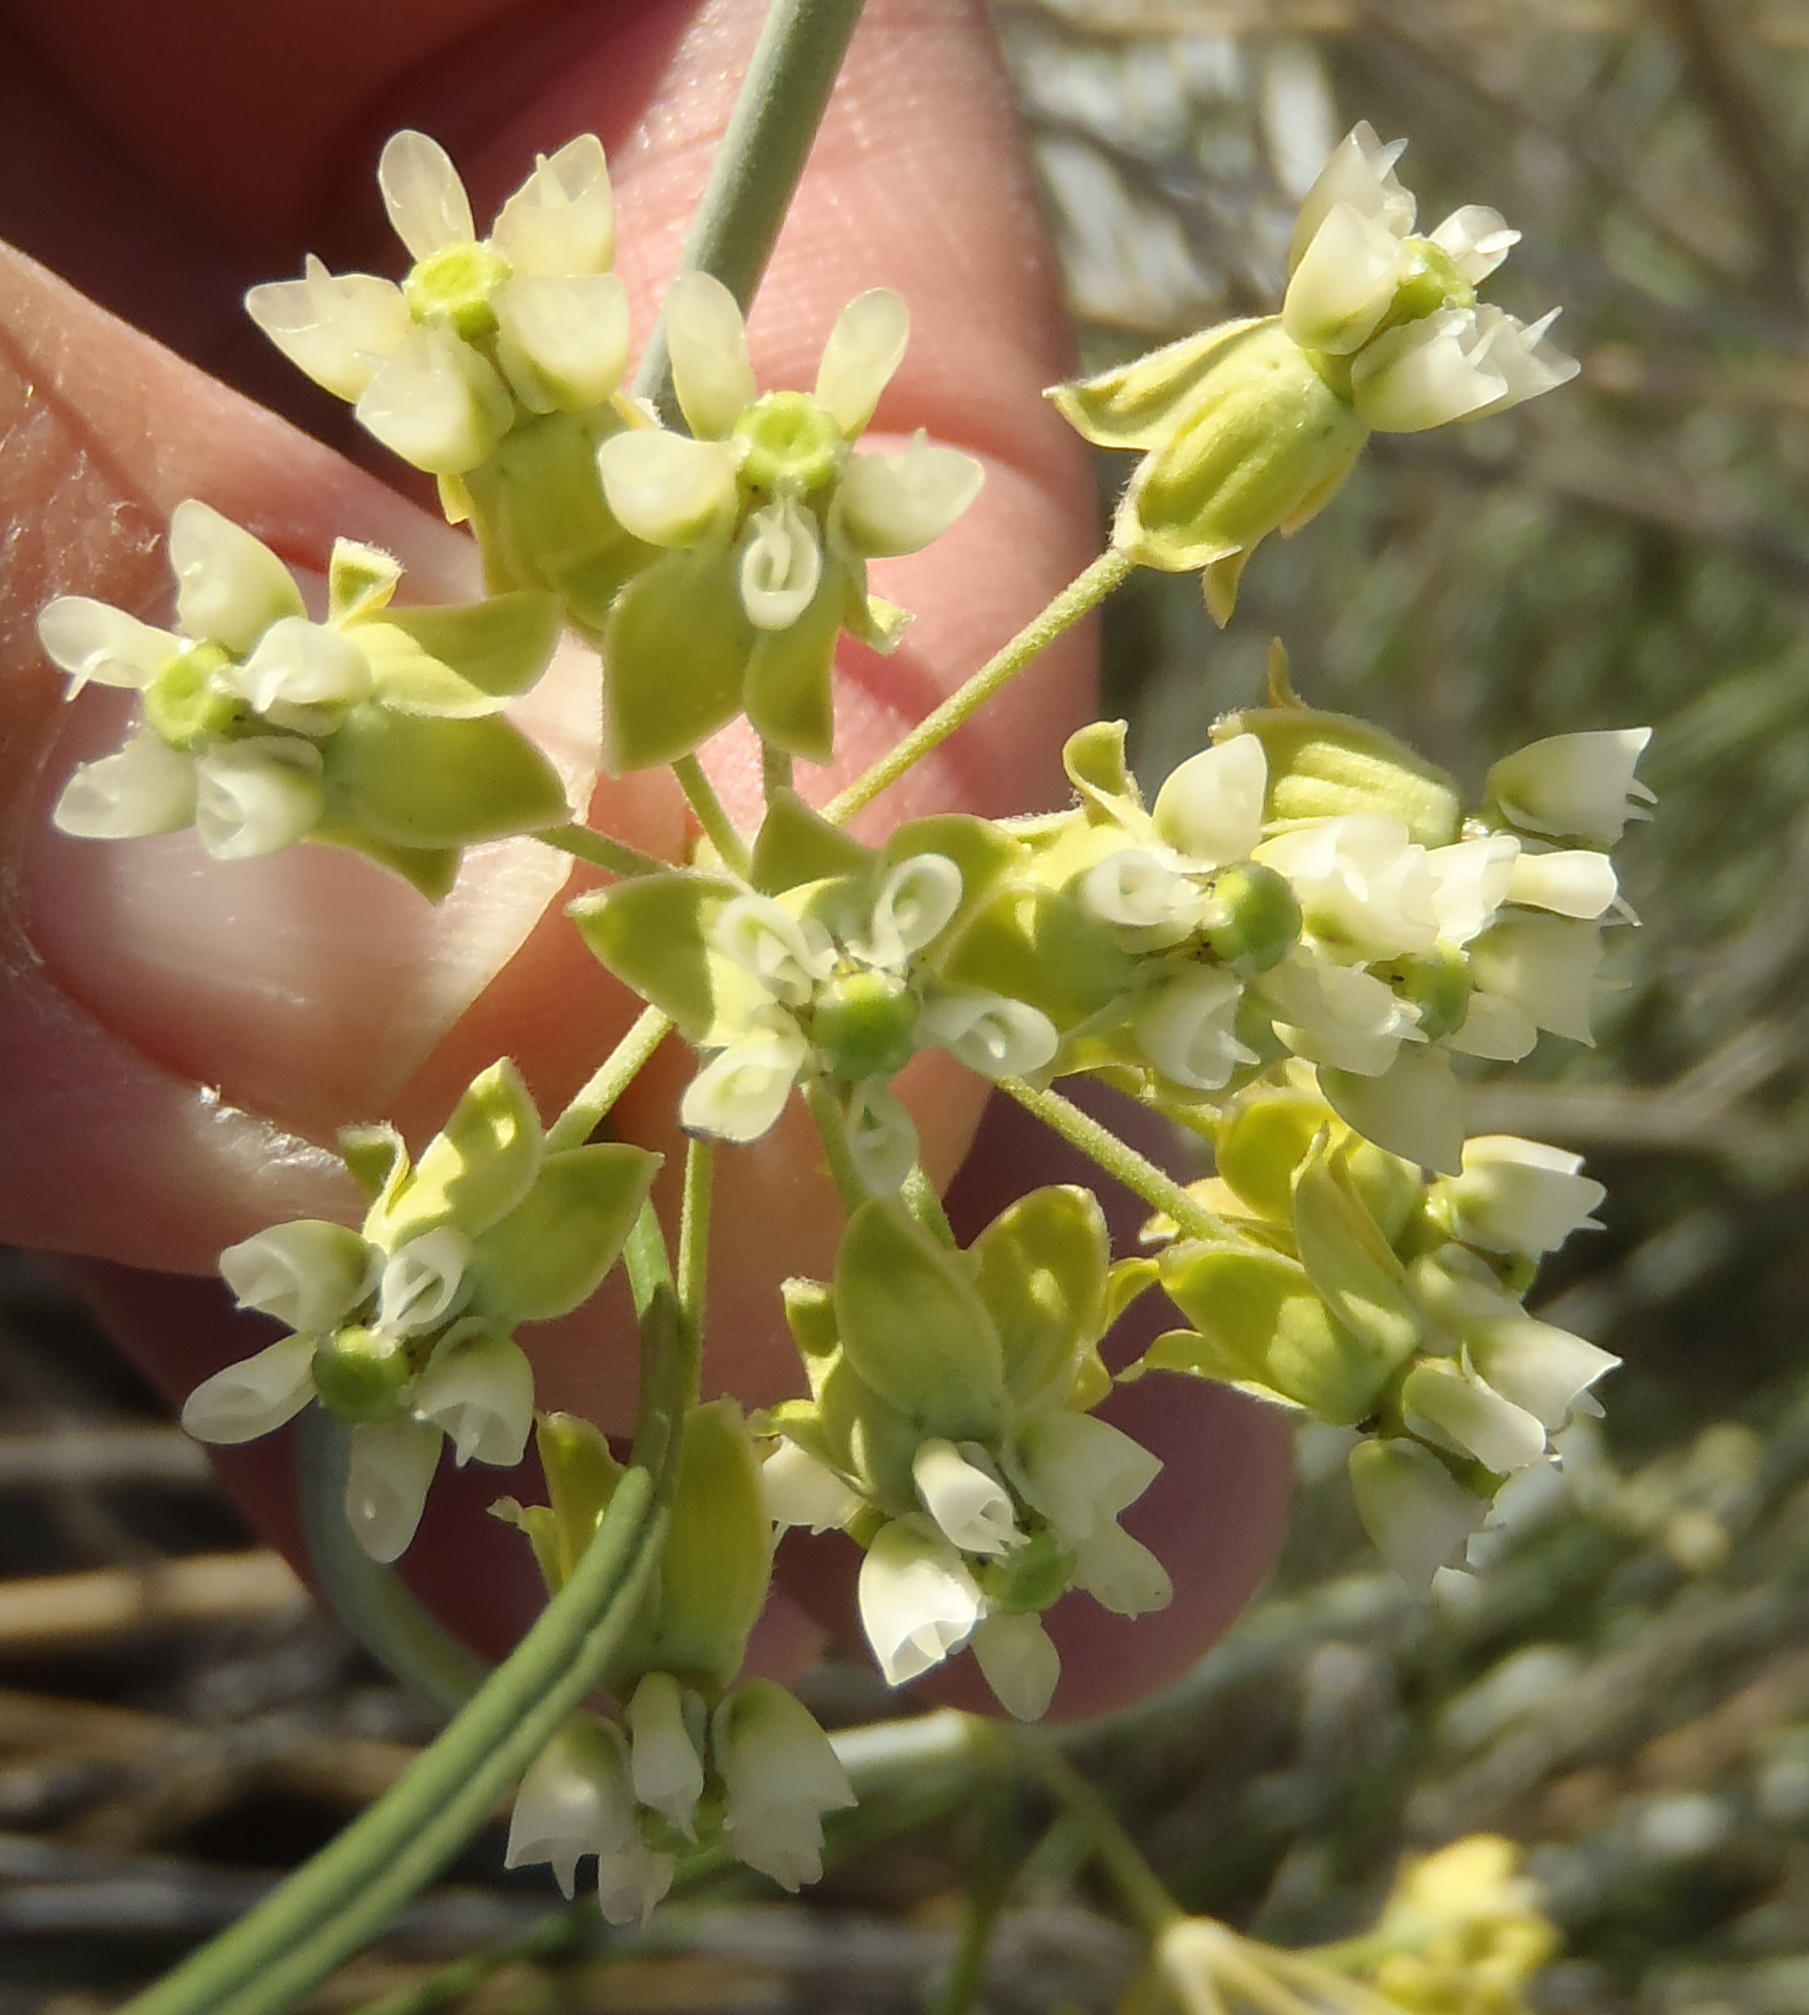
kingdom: Plantae
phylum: Tracheophyta
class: Magnoliopsida
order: Gentianales
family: Apocynaceae
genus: Gomphocarpus
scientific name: Gomphocarpus filiformis
